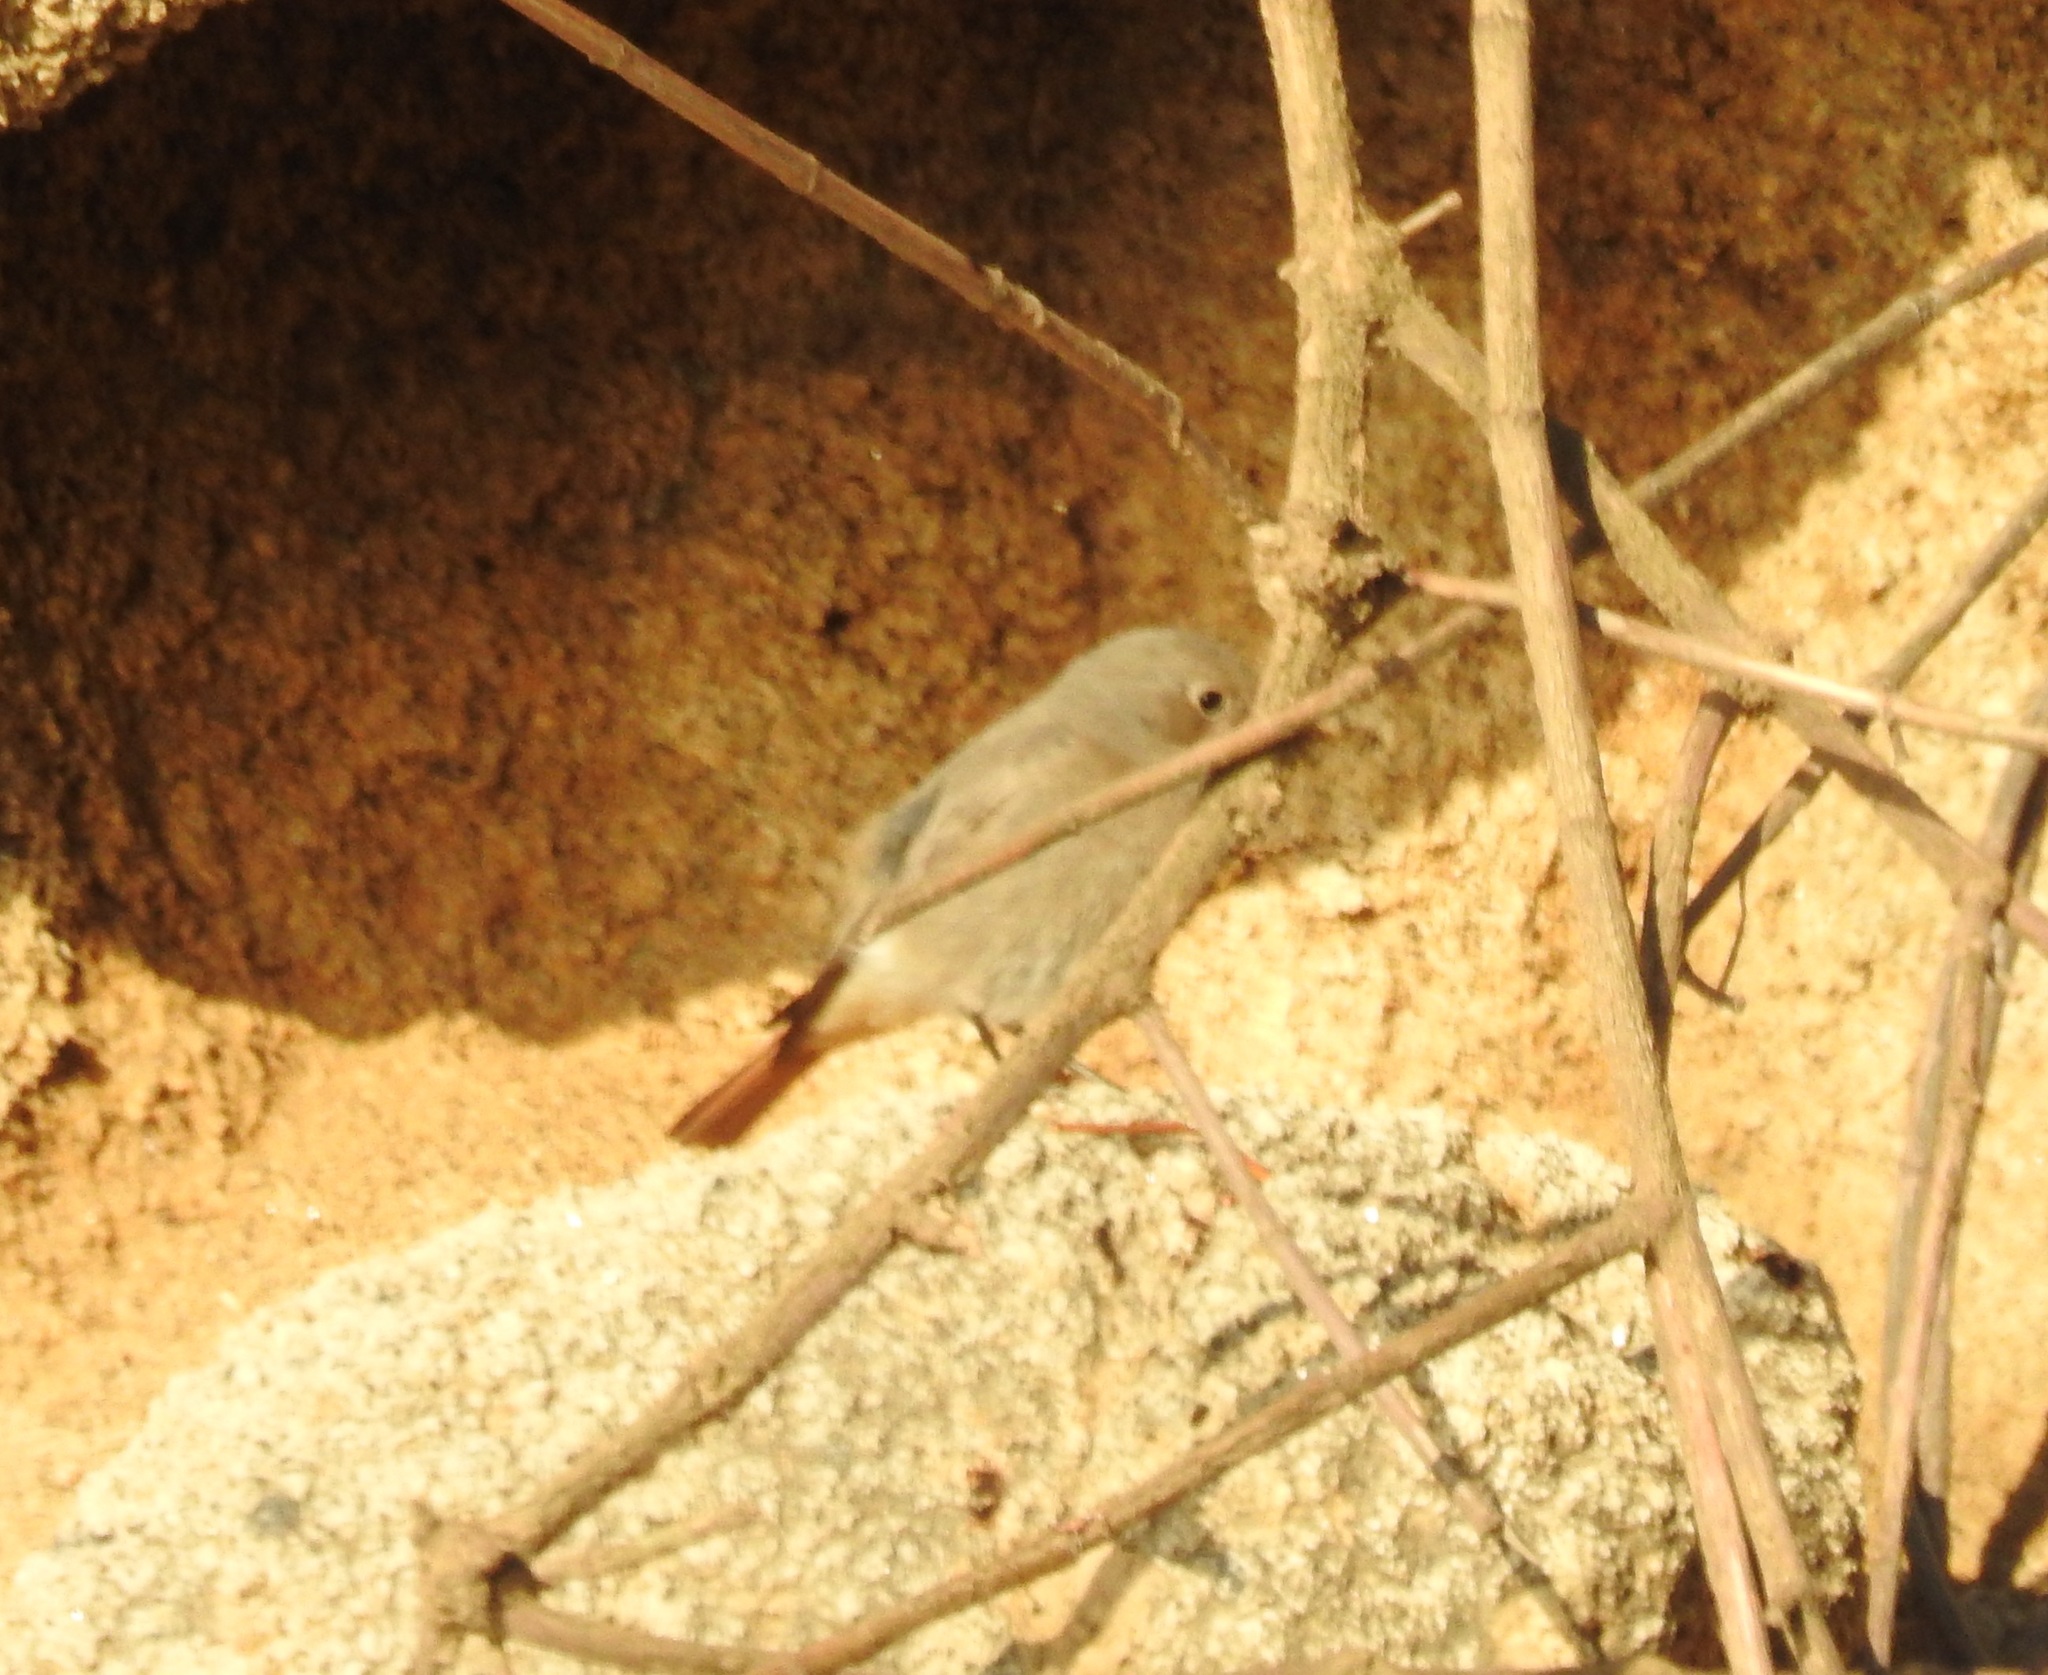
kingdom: Animalia
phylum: Chordata
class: Aves
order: Passeriformes
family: Muscicapidae
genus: Phoenicurus
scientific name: Phoenicurus ochruros
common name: Black redstart
